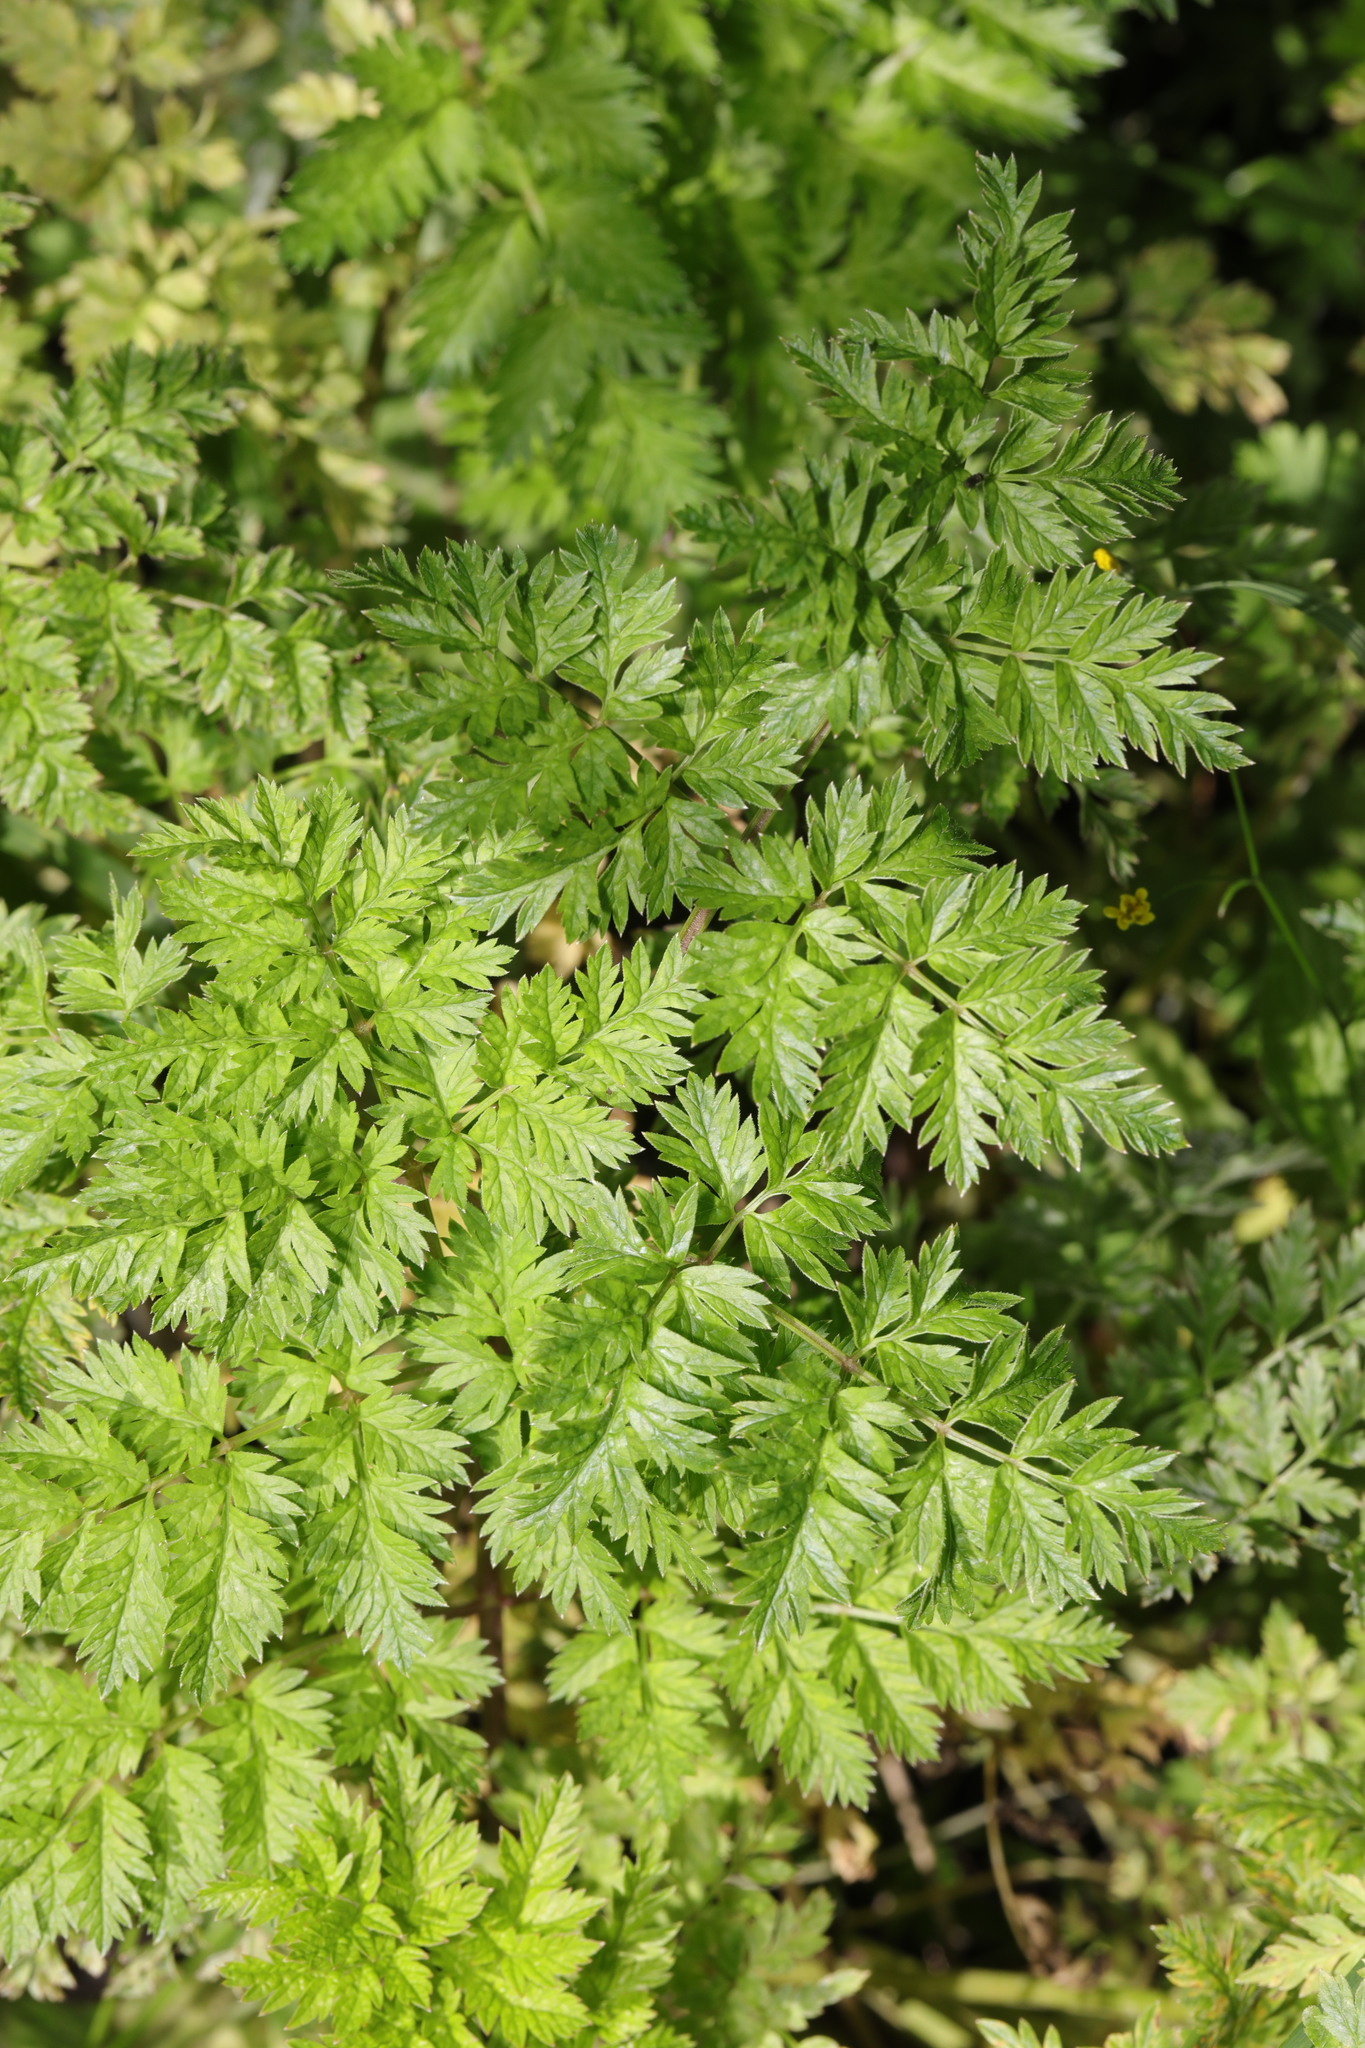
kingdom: Plantae
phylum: Tracheophyta
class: Magnoliopsida
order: Apiales
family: Apiaceae
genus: Anthriscus
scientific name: Anthriscus sylvestris
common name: Cow parsley
